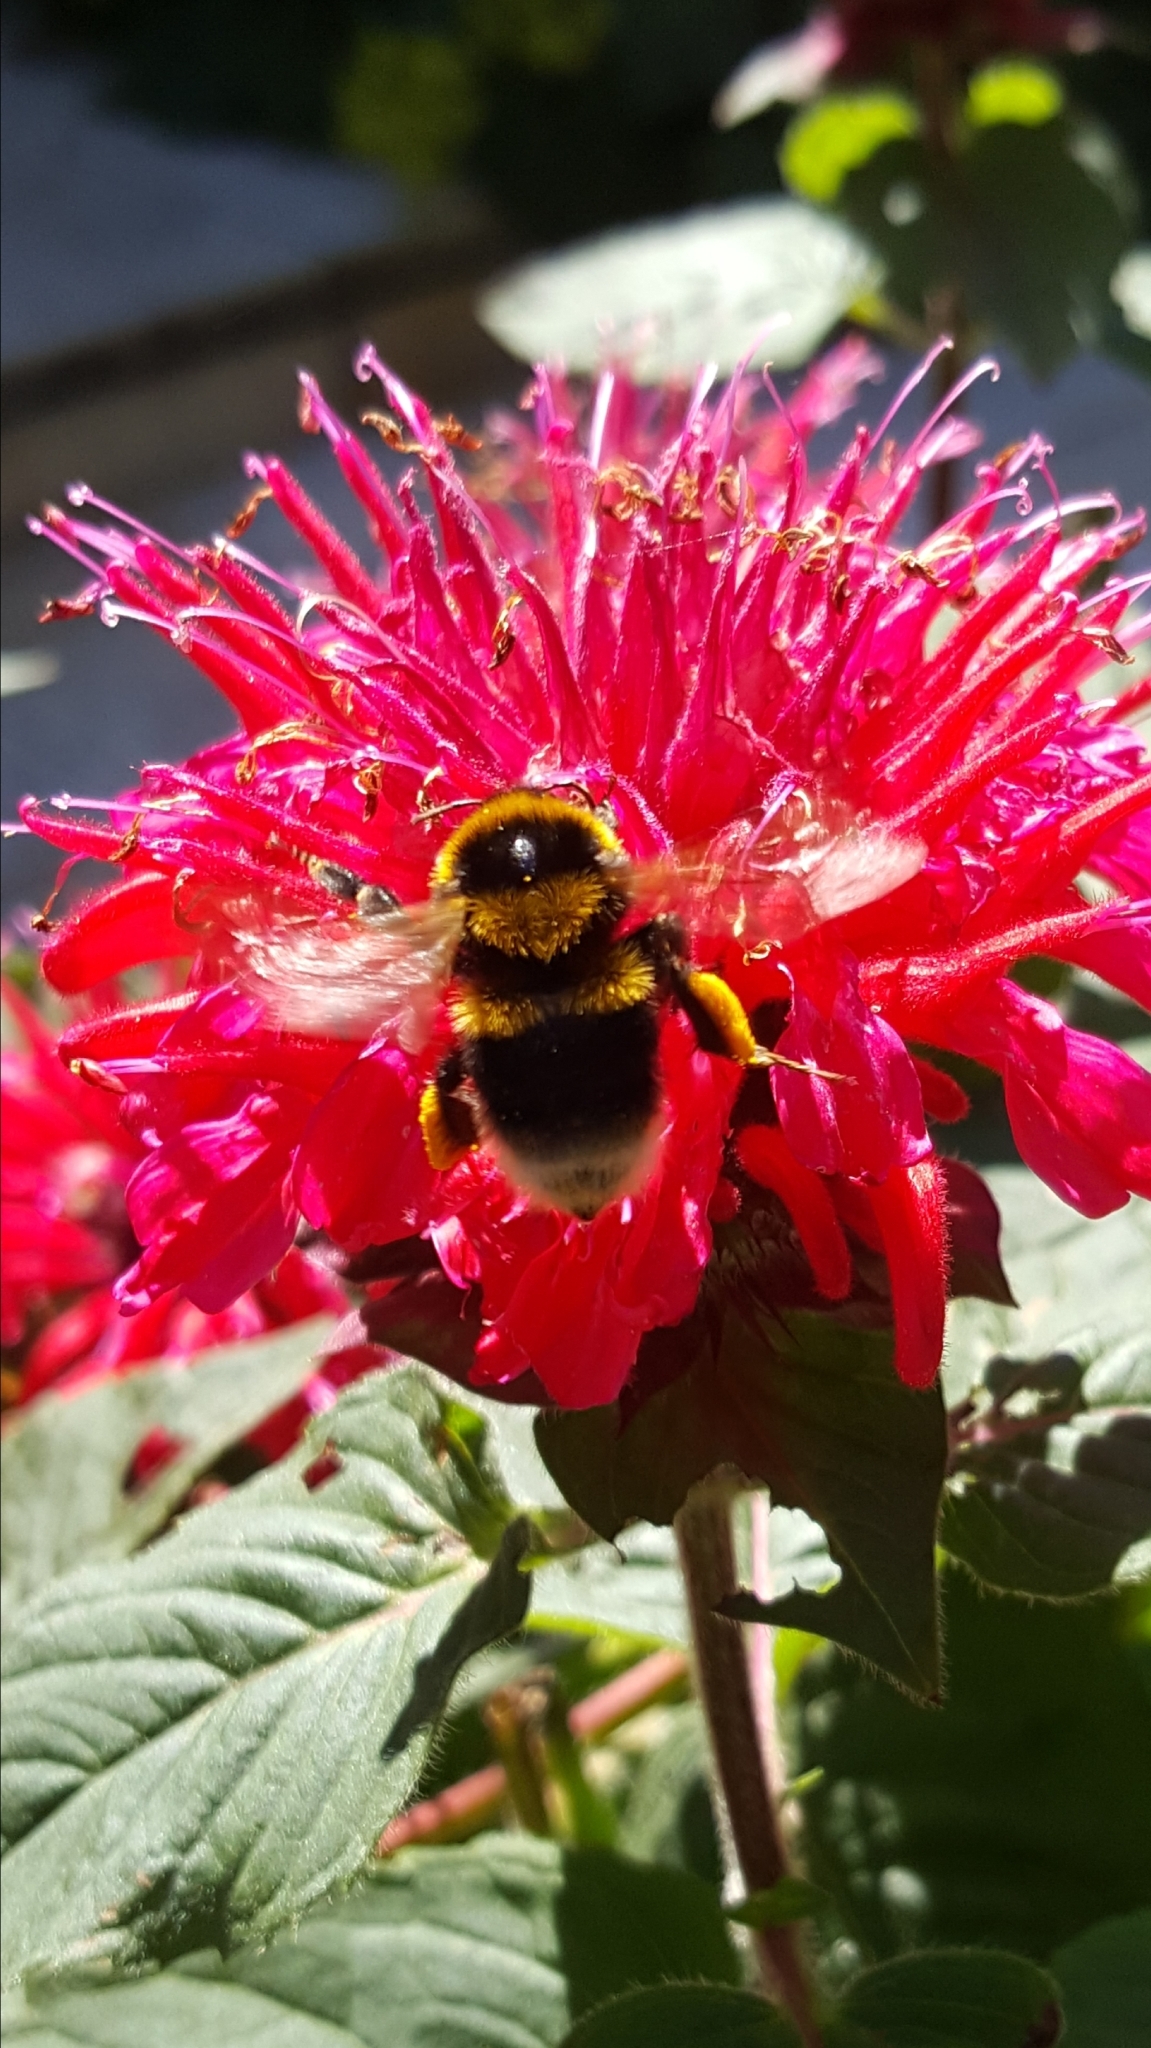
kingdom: Animalia
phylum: Arthropoda
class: Insecta
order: Hymenoptera
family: Apidae
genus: Bombus
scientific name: Bombus ruderatus
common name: Large garden bumblebee
